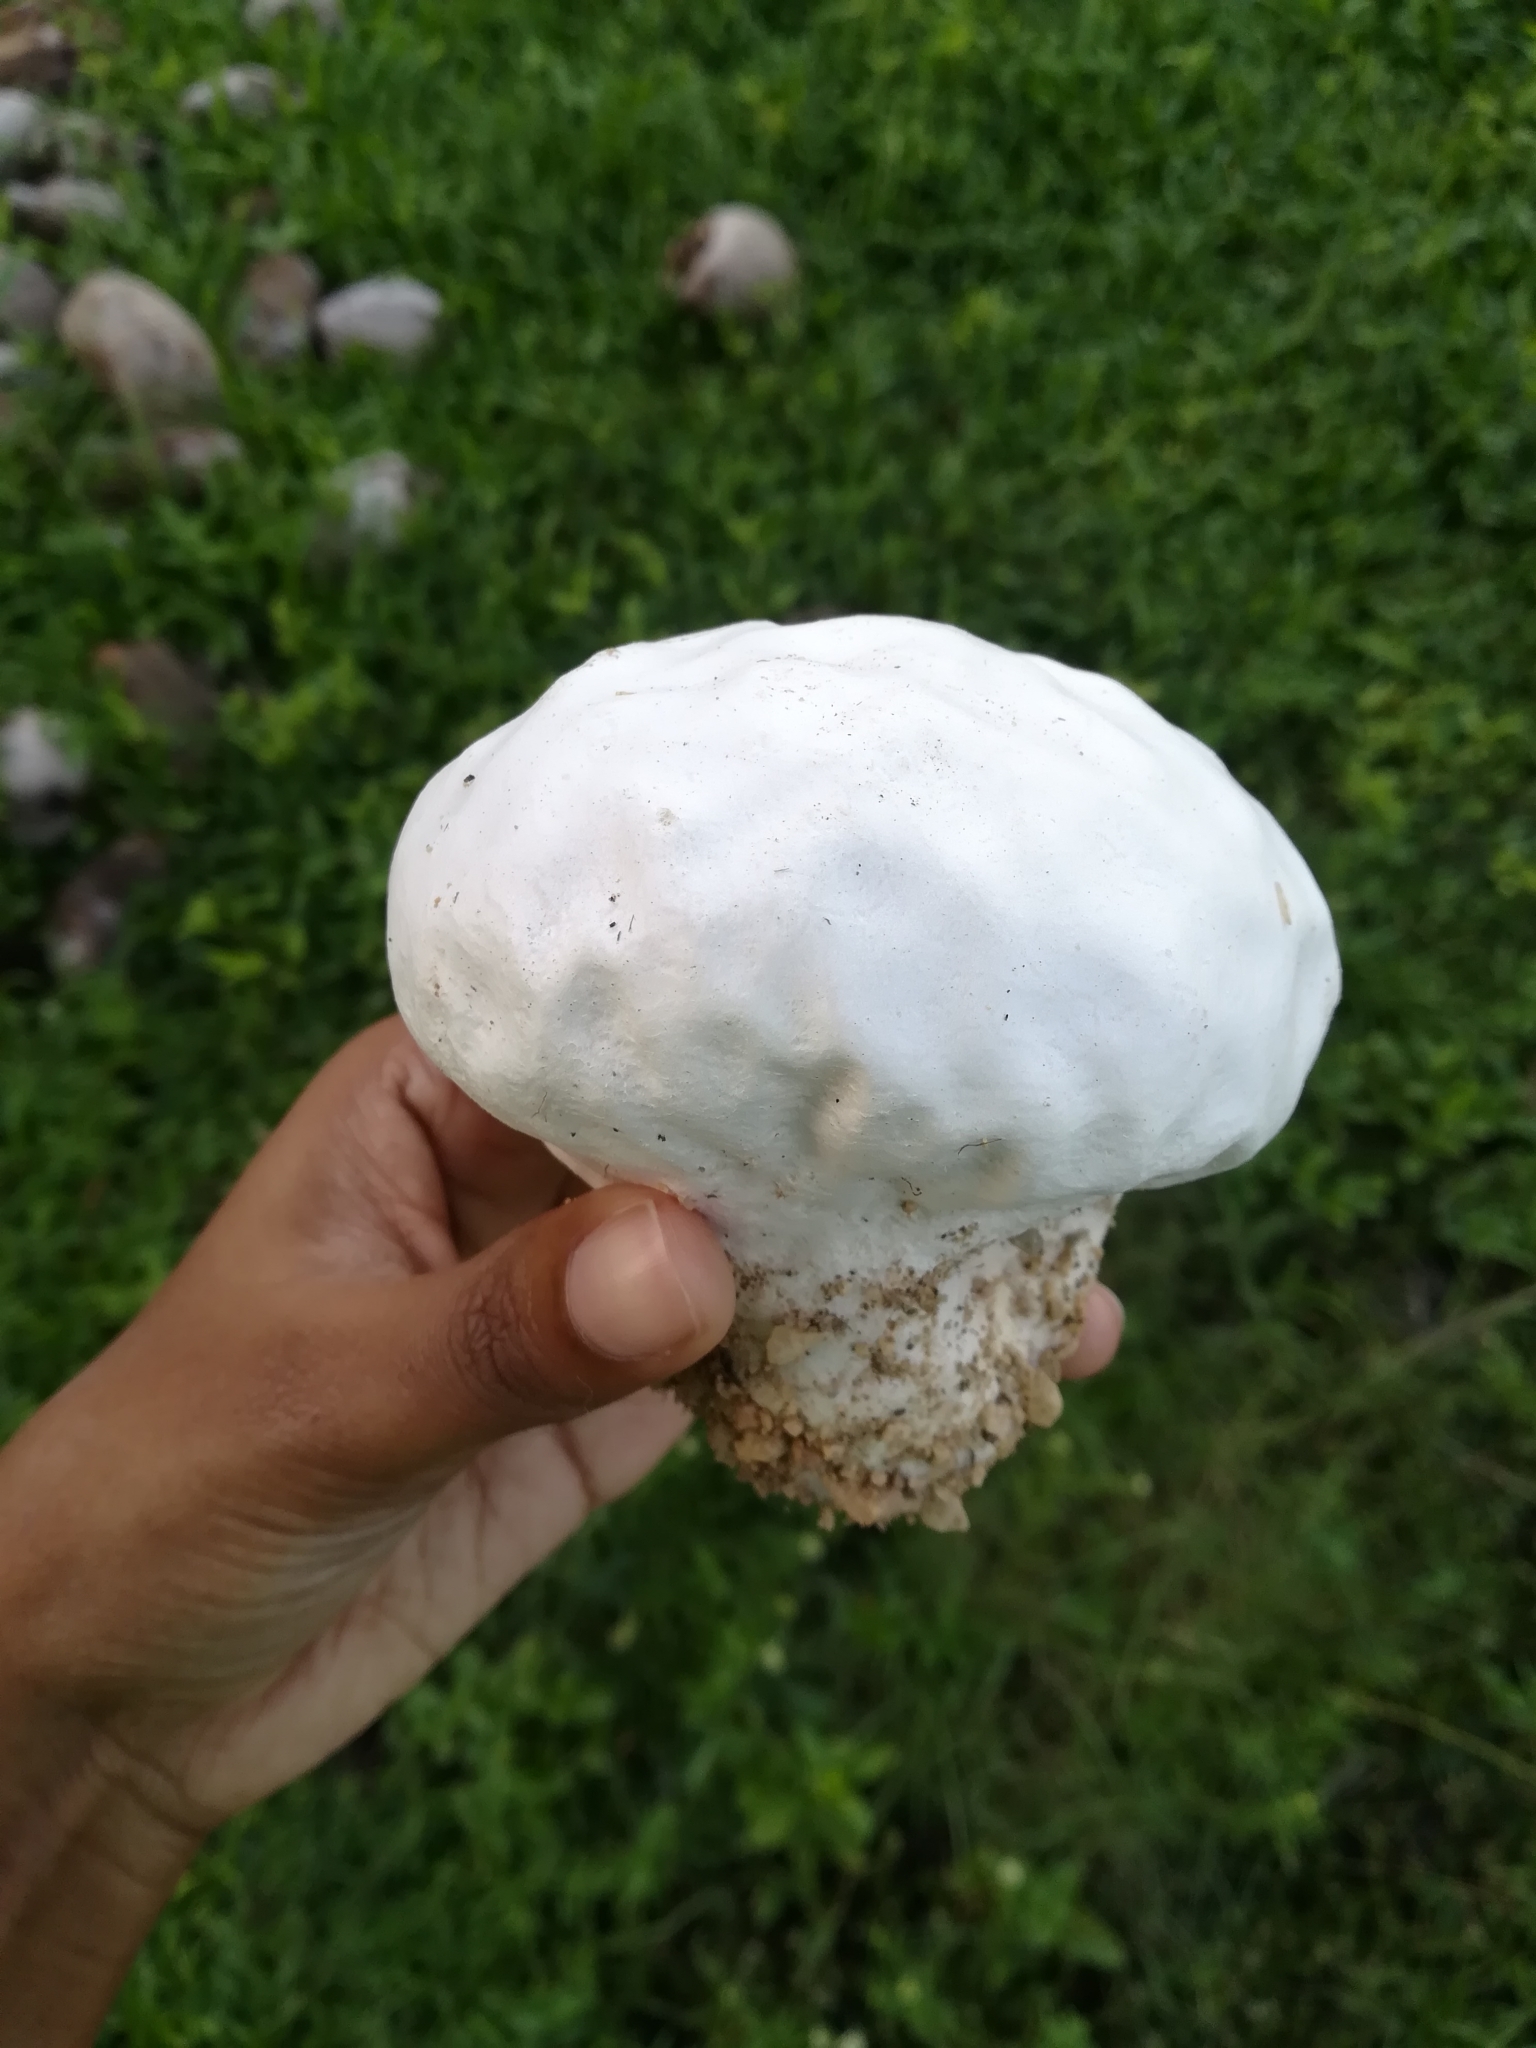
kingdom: Fungi
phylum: Basidiomycota
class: Agaricomycetes
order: Agaricales
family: Lycoperdaceae
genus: Calvatia
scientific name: Calvatia cyathiformis
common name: Purple-spored puffball
